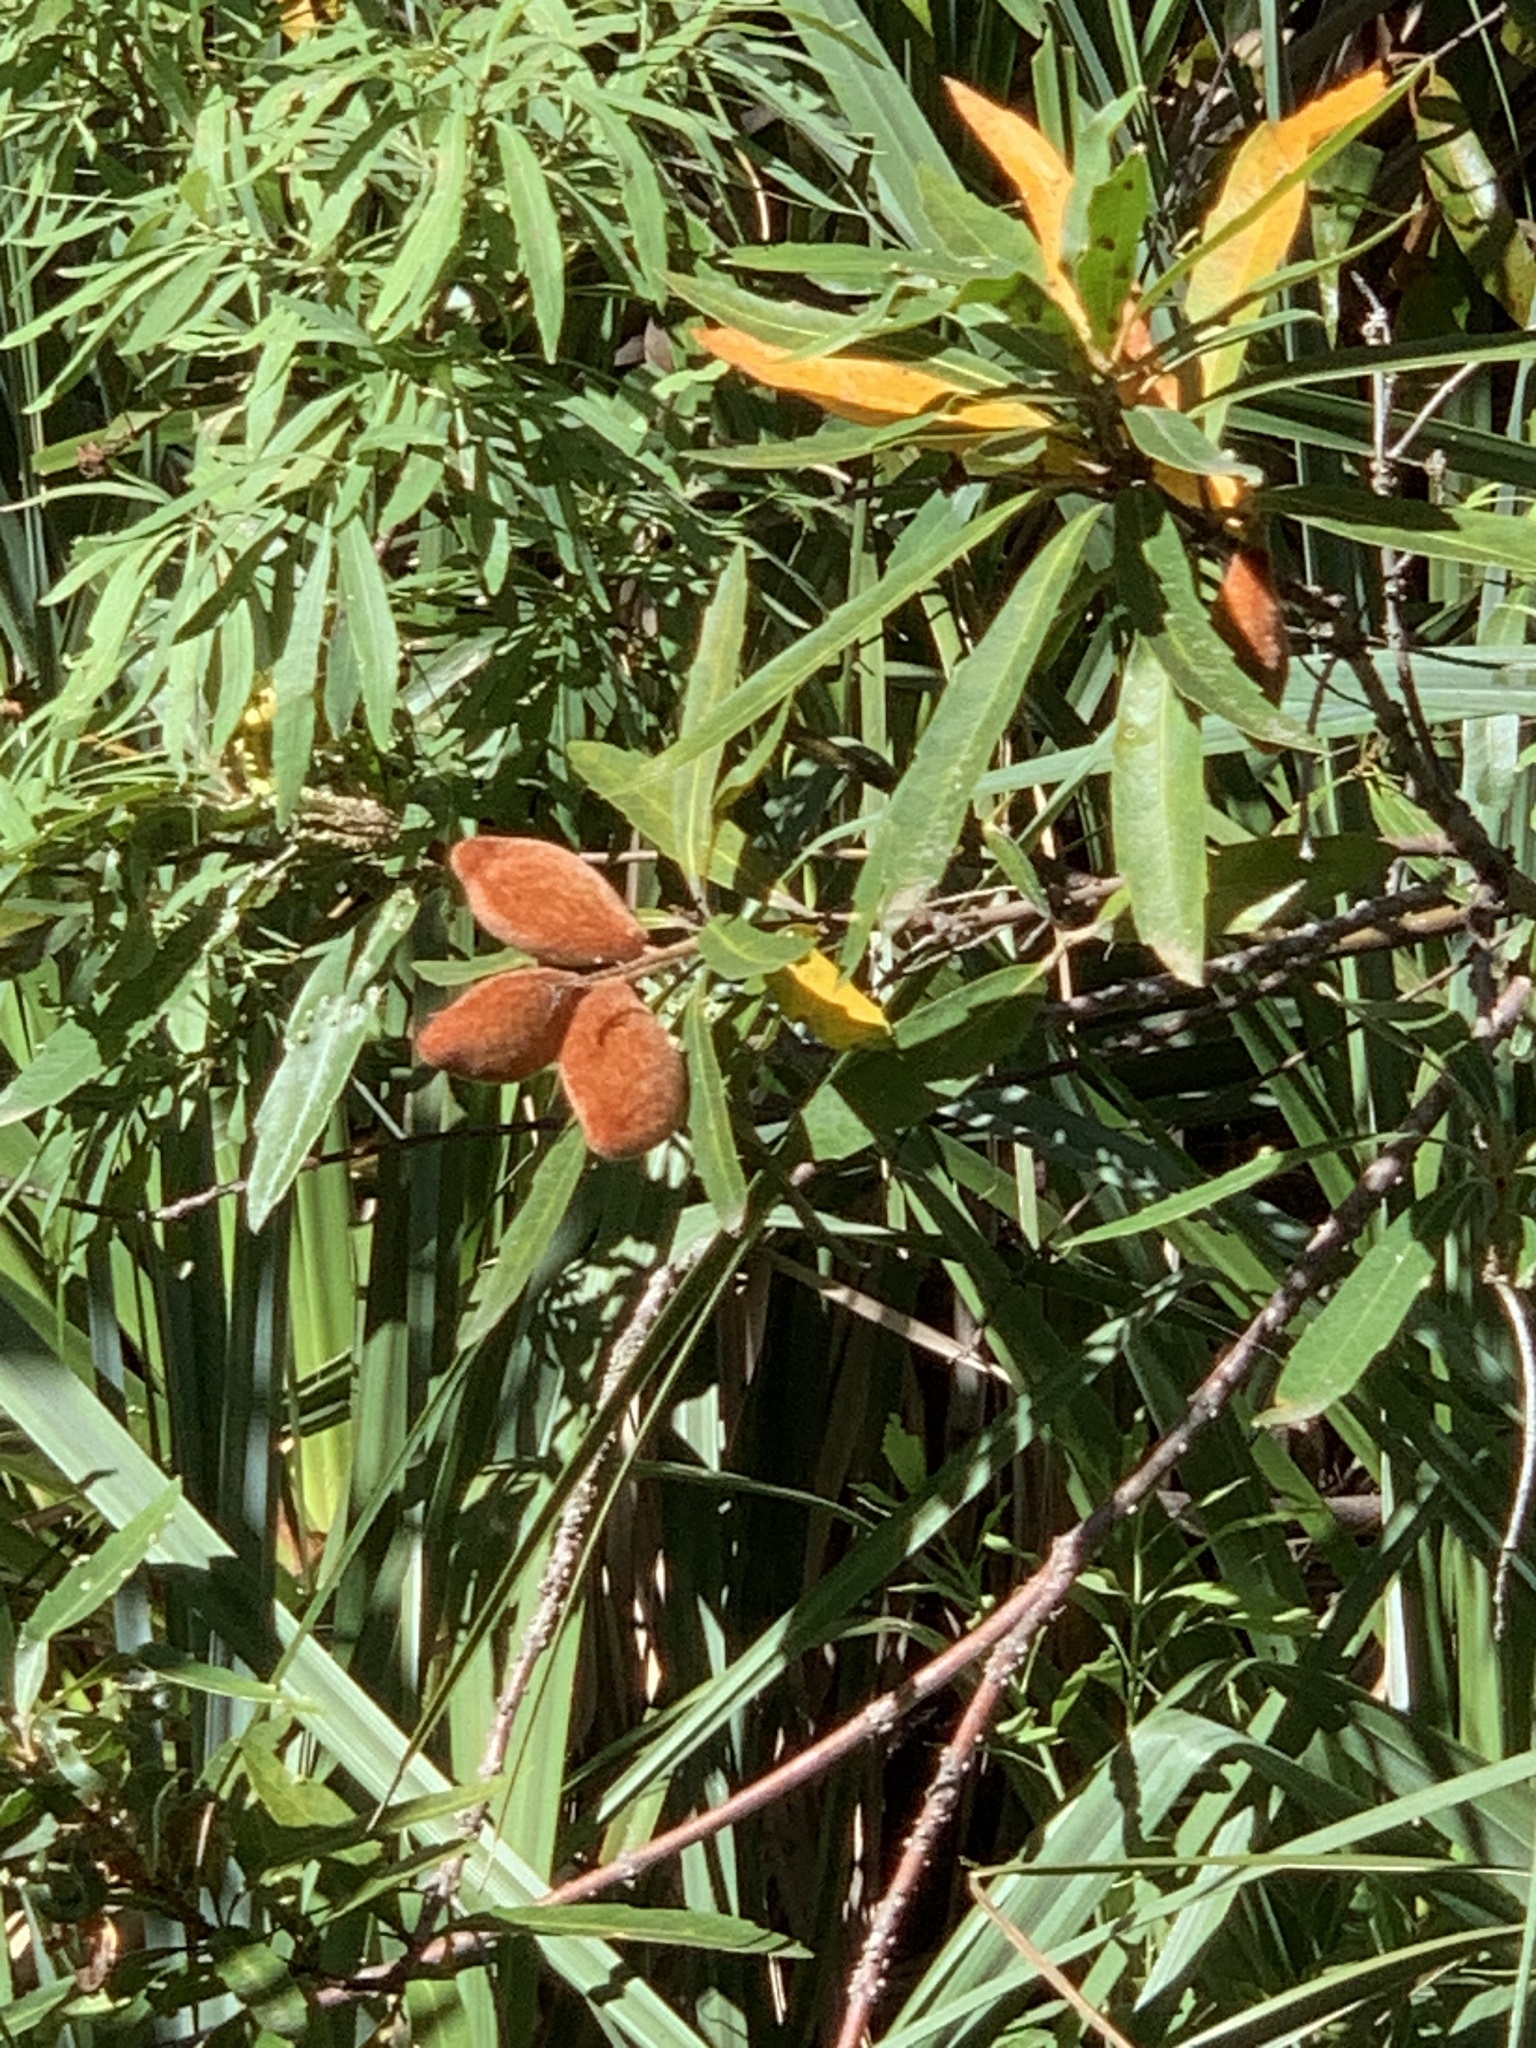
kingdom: Plantae
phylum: Tracheophyta
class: Magnoliopsida
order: Proteales
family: Proteaceae
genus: Brabejum
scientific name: Brabejum stellatifolium
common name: Wild almond
